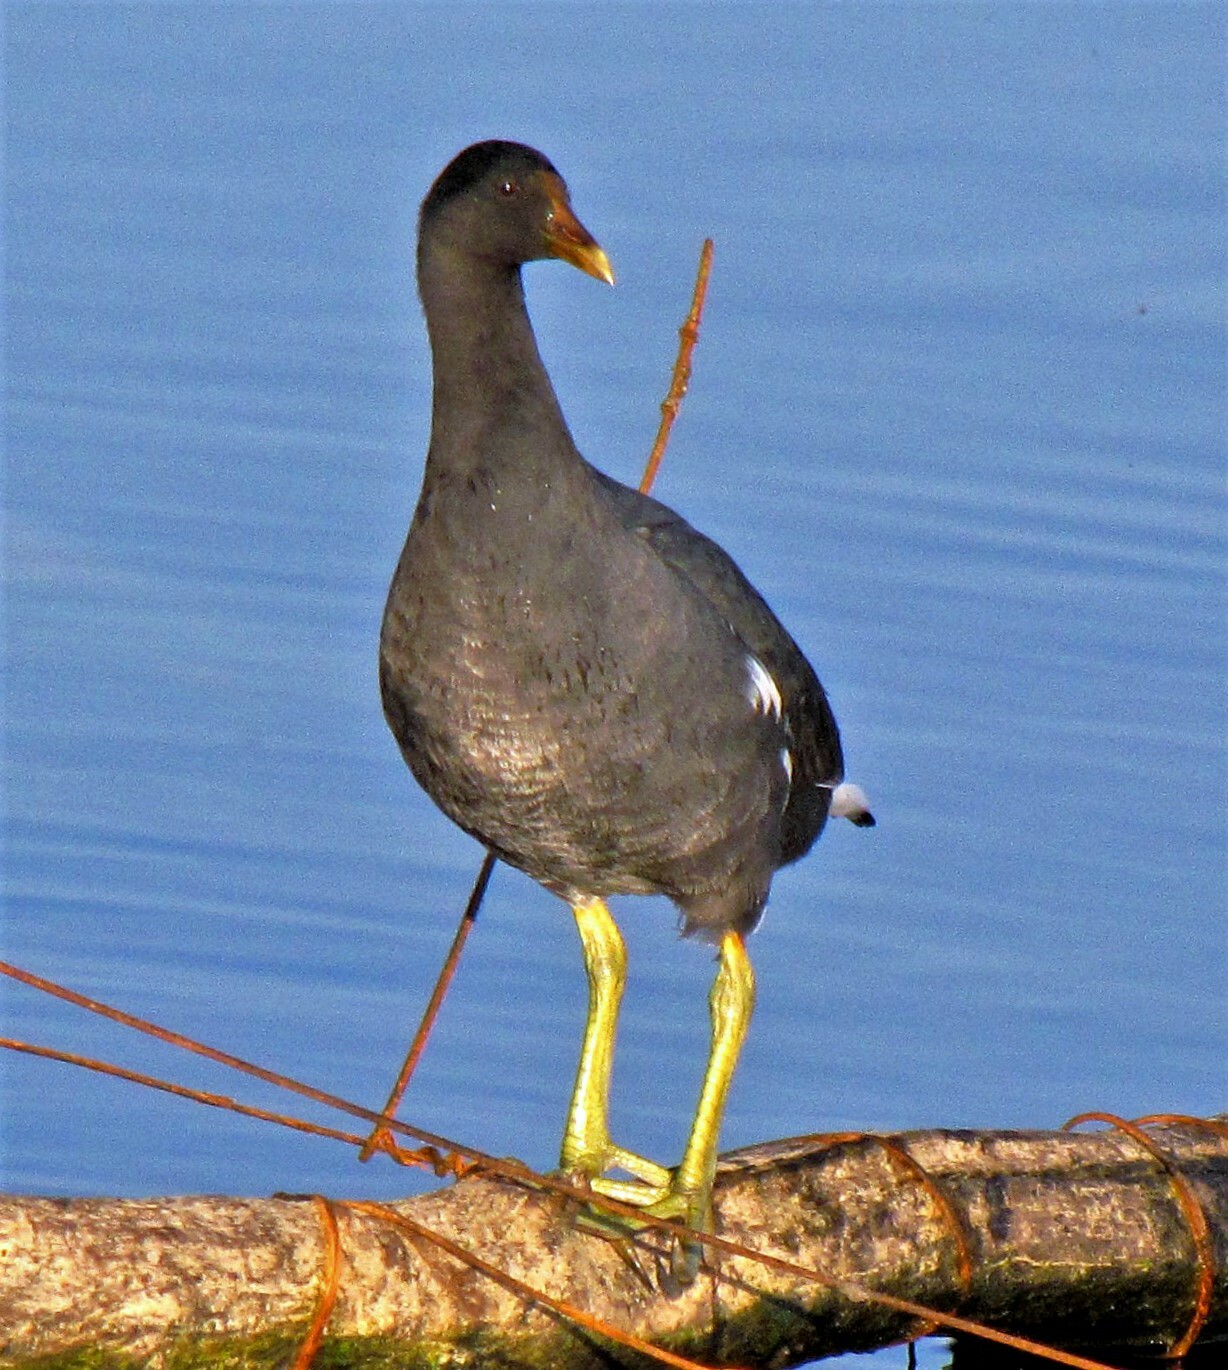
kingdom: Animalia
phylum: Chordata
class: Aves
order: Gruiformes
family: Rallidae
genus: Gallinula
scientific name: Gallinula chloropus
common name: Common moorhen
